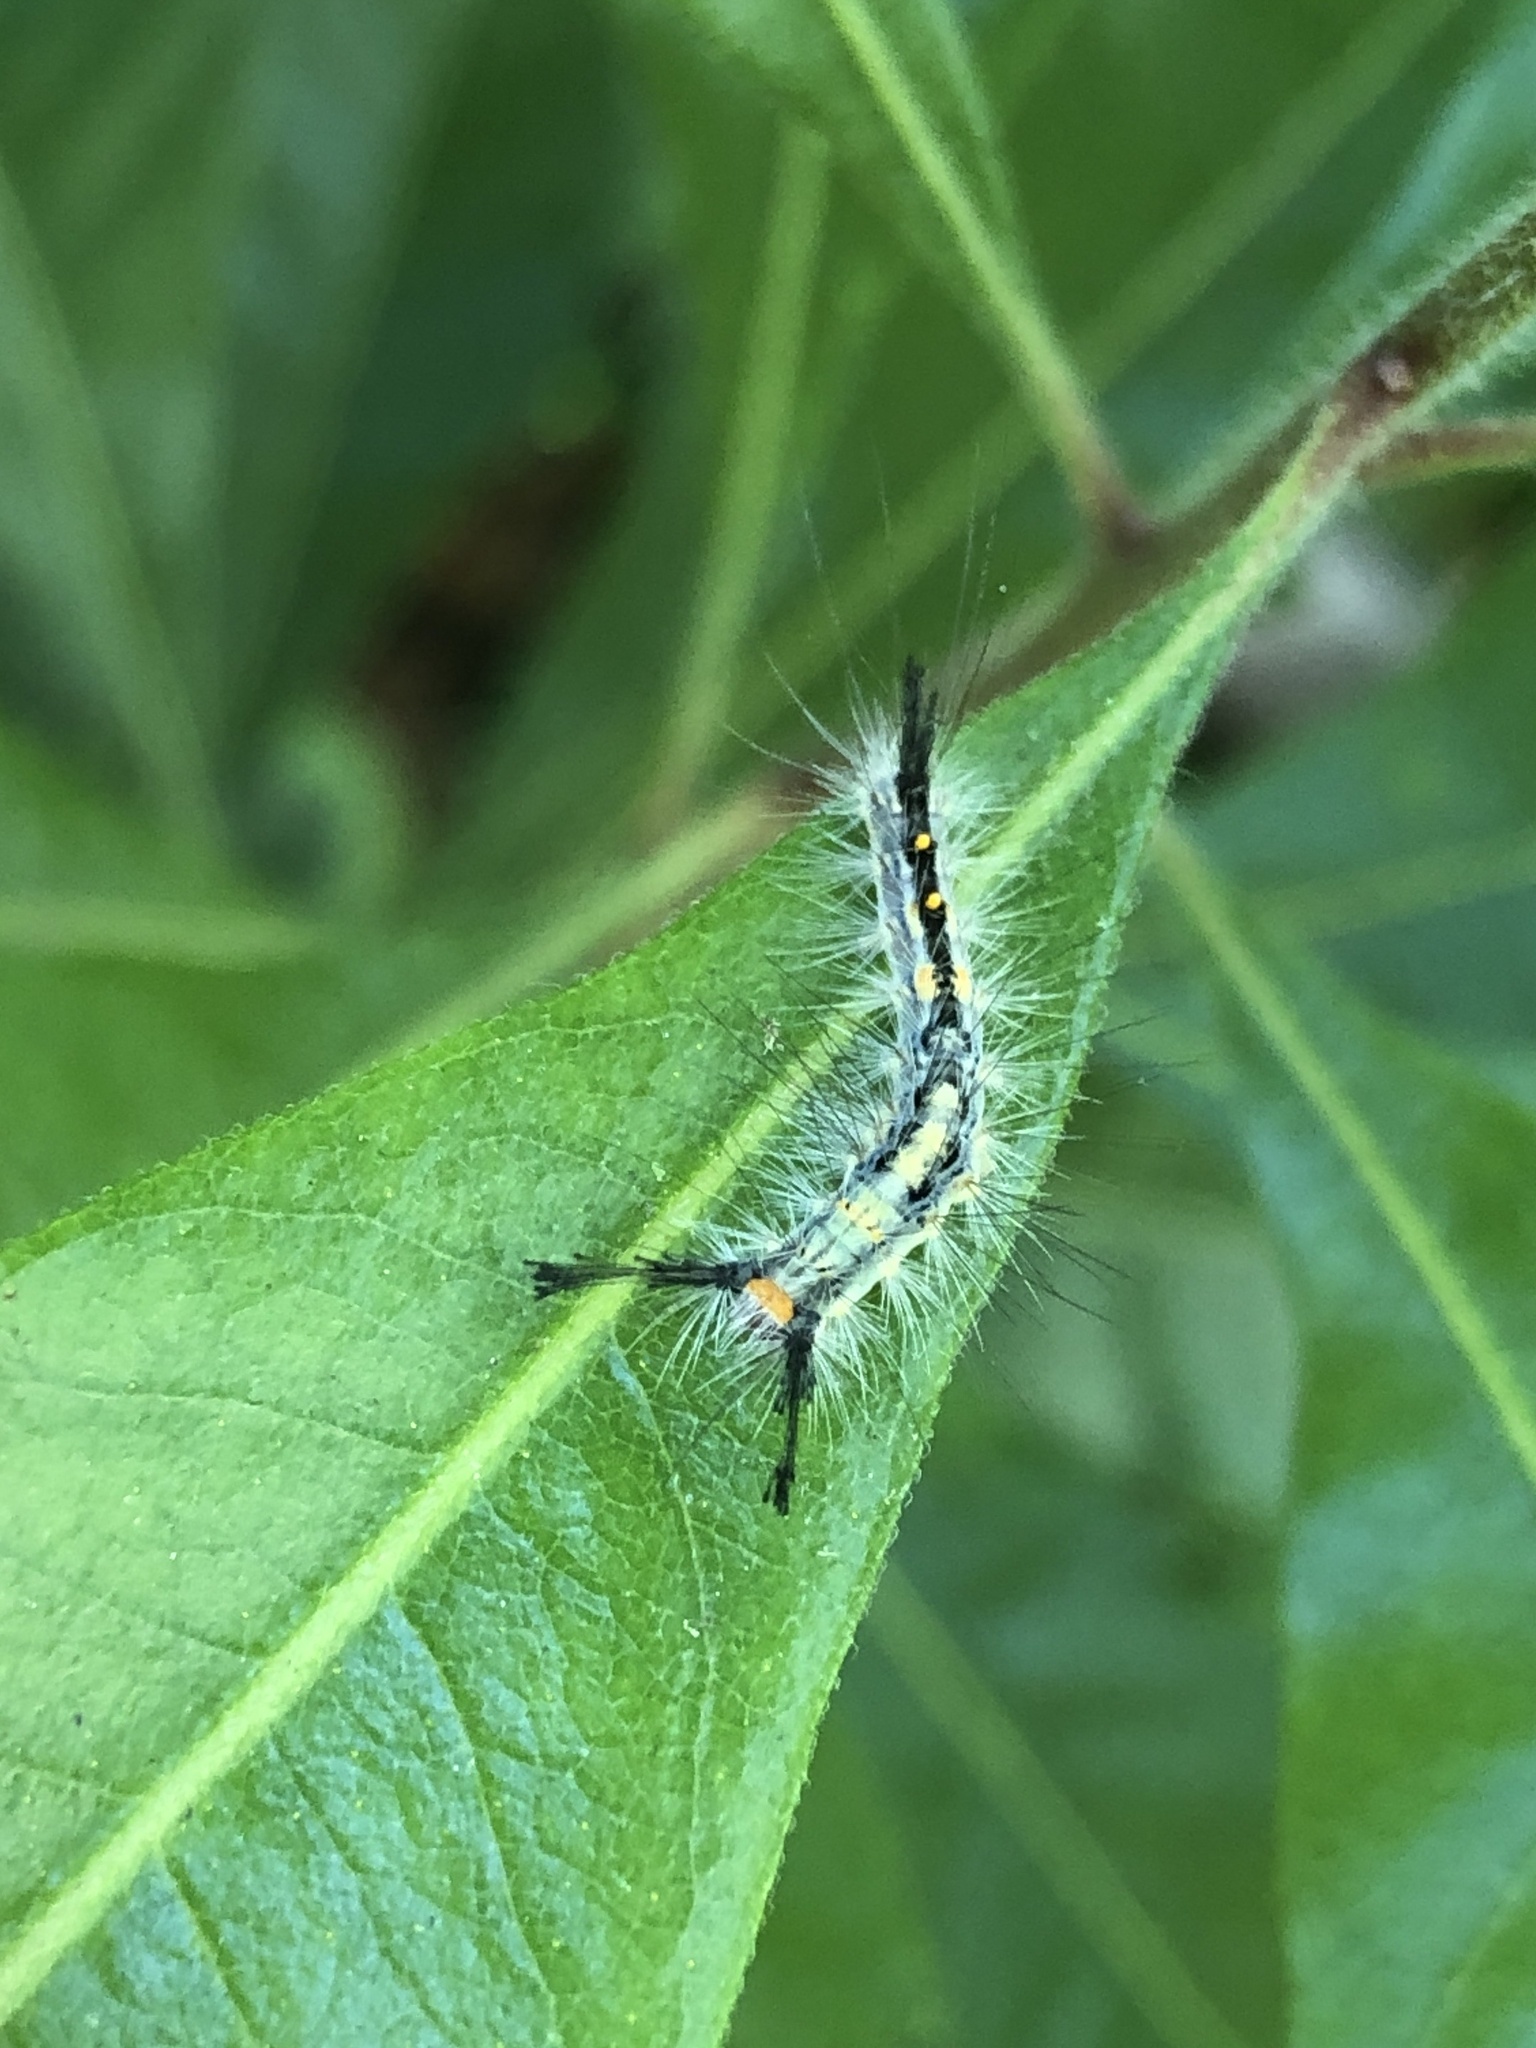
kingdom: Animalia
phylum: Arthropoda
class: Insecta
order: Lepidoptera
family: Erebidae
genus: Orgyia
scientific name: Orgyia detrita
